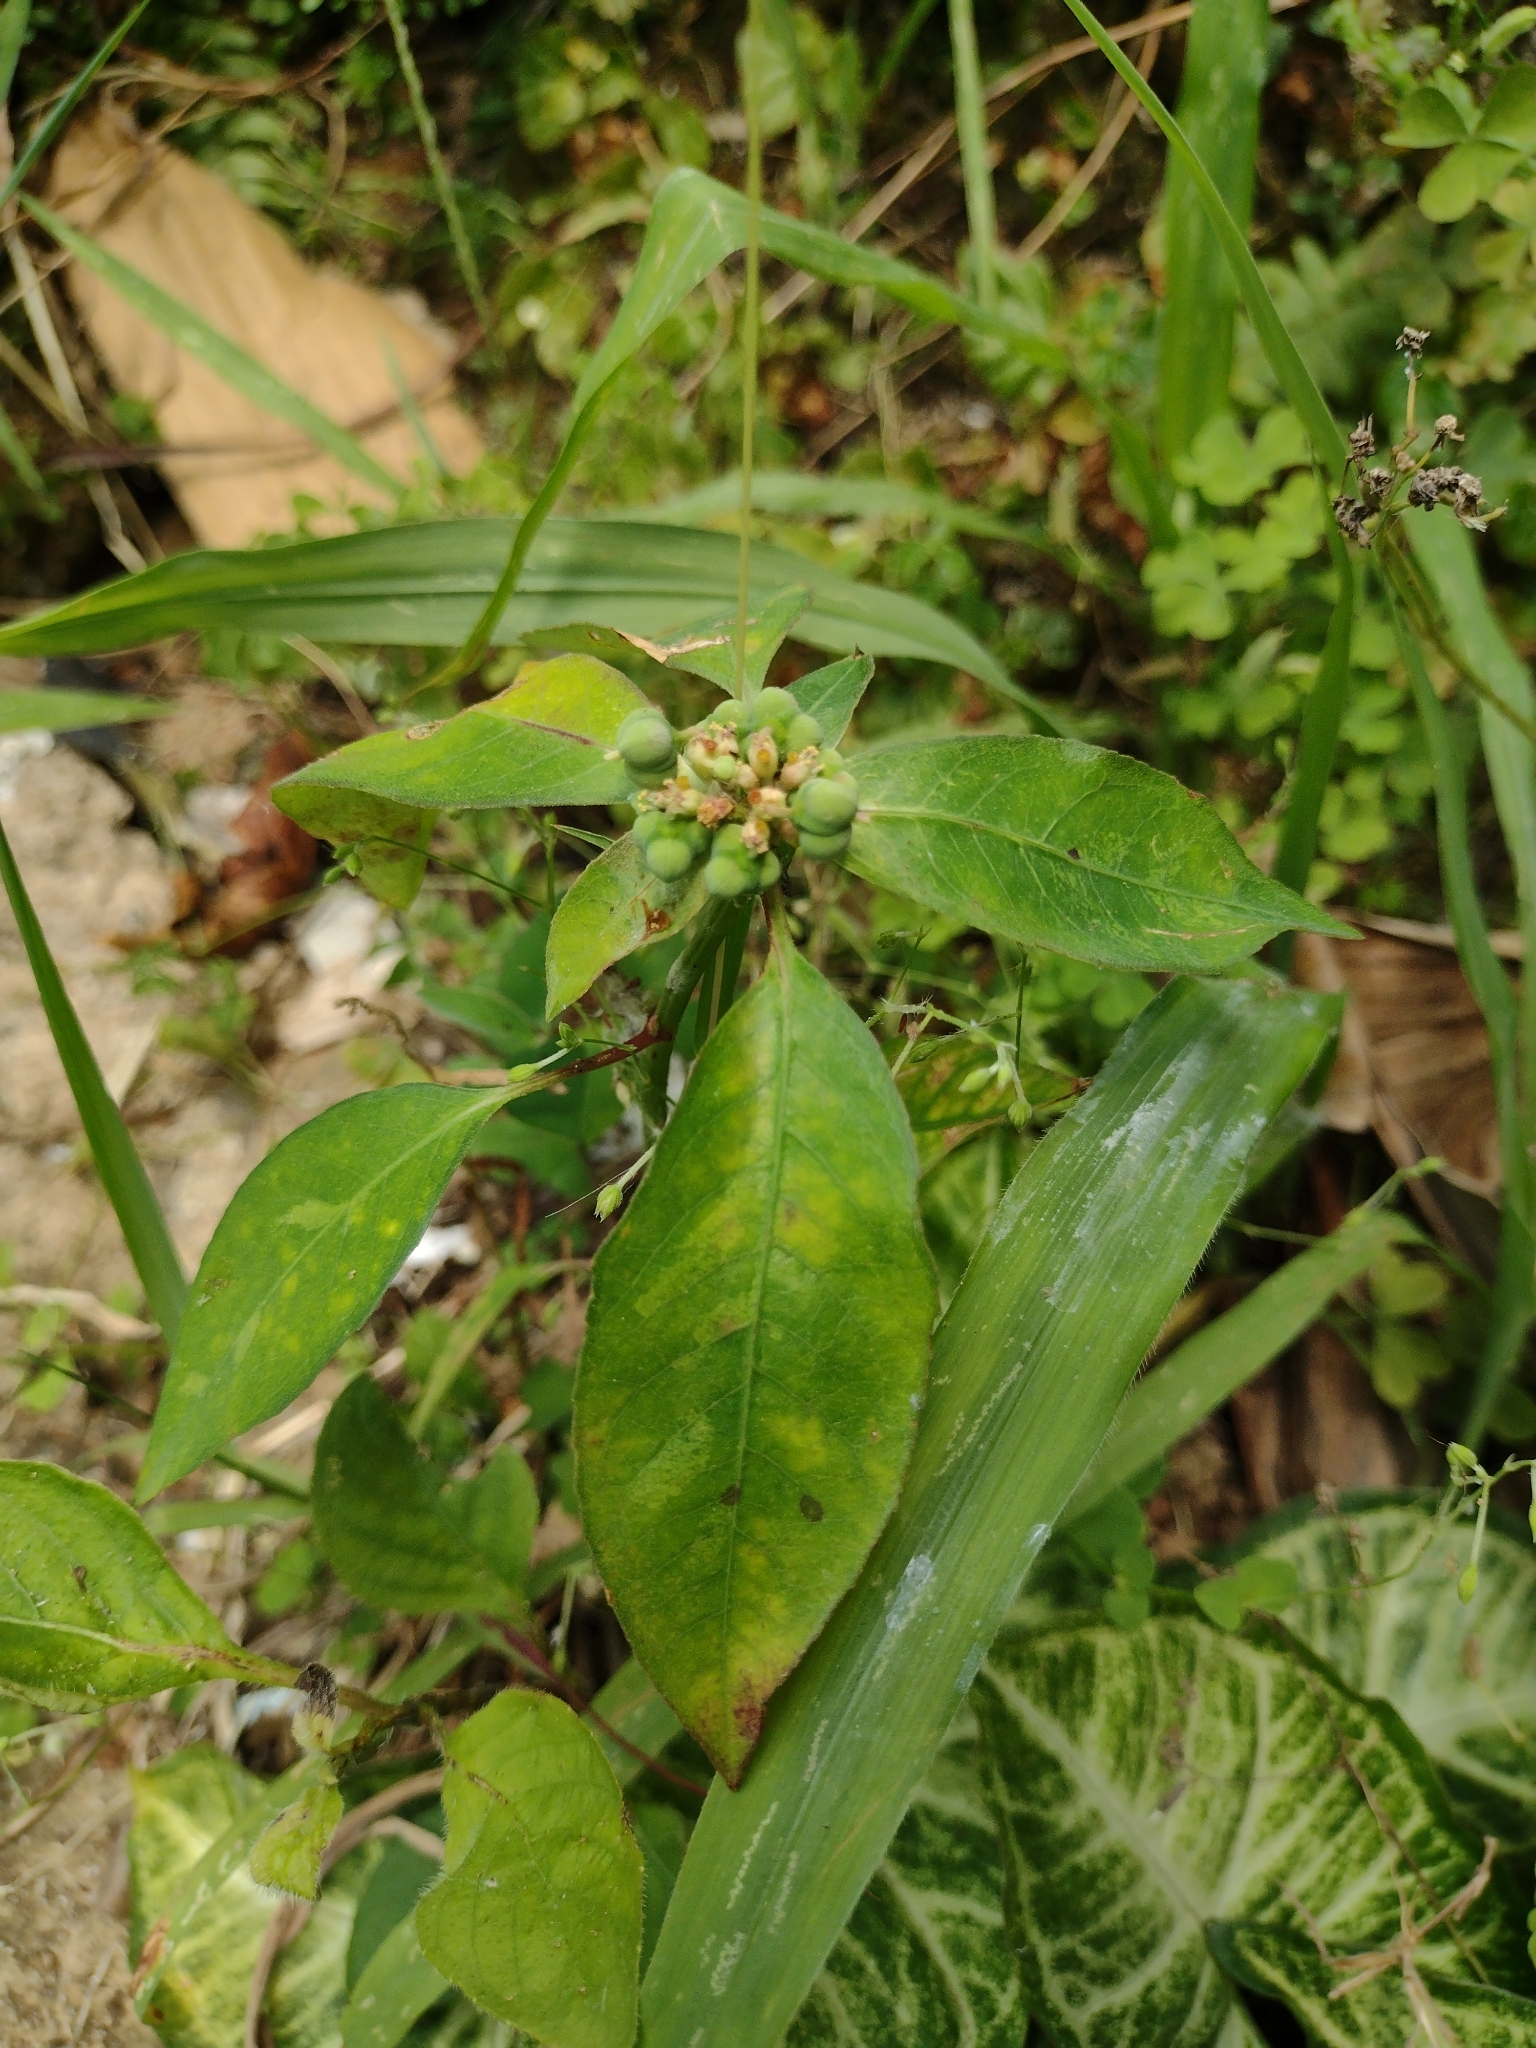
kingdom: Plantae
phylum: Tracheophyta
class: Magnoliopsida
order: Malpighiales
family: Euphorbiaceae
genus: Euphorbia
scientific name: Euphorbia heterophylla
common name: Mexican fireplant
